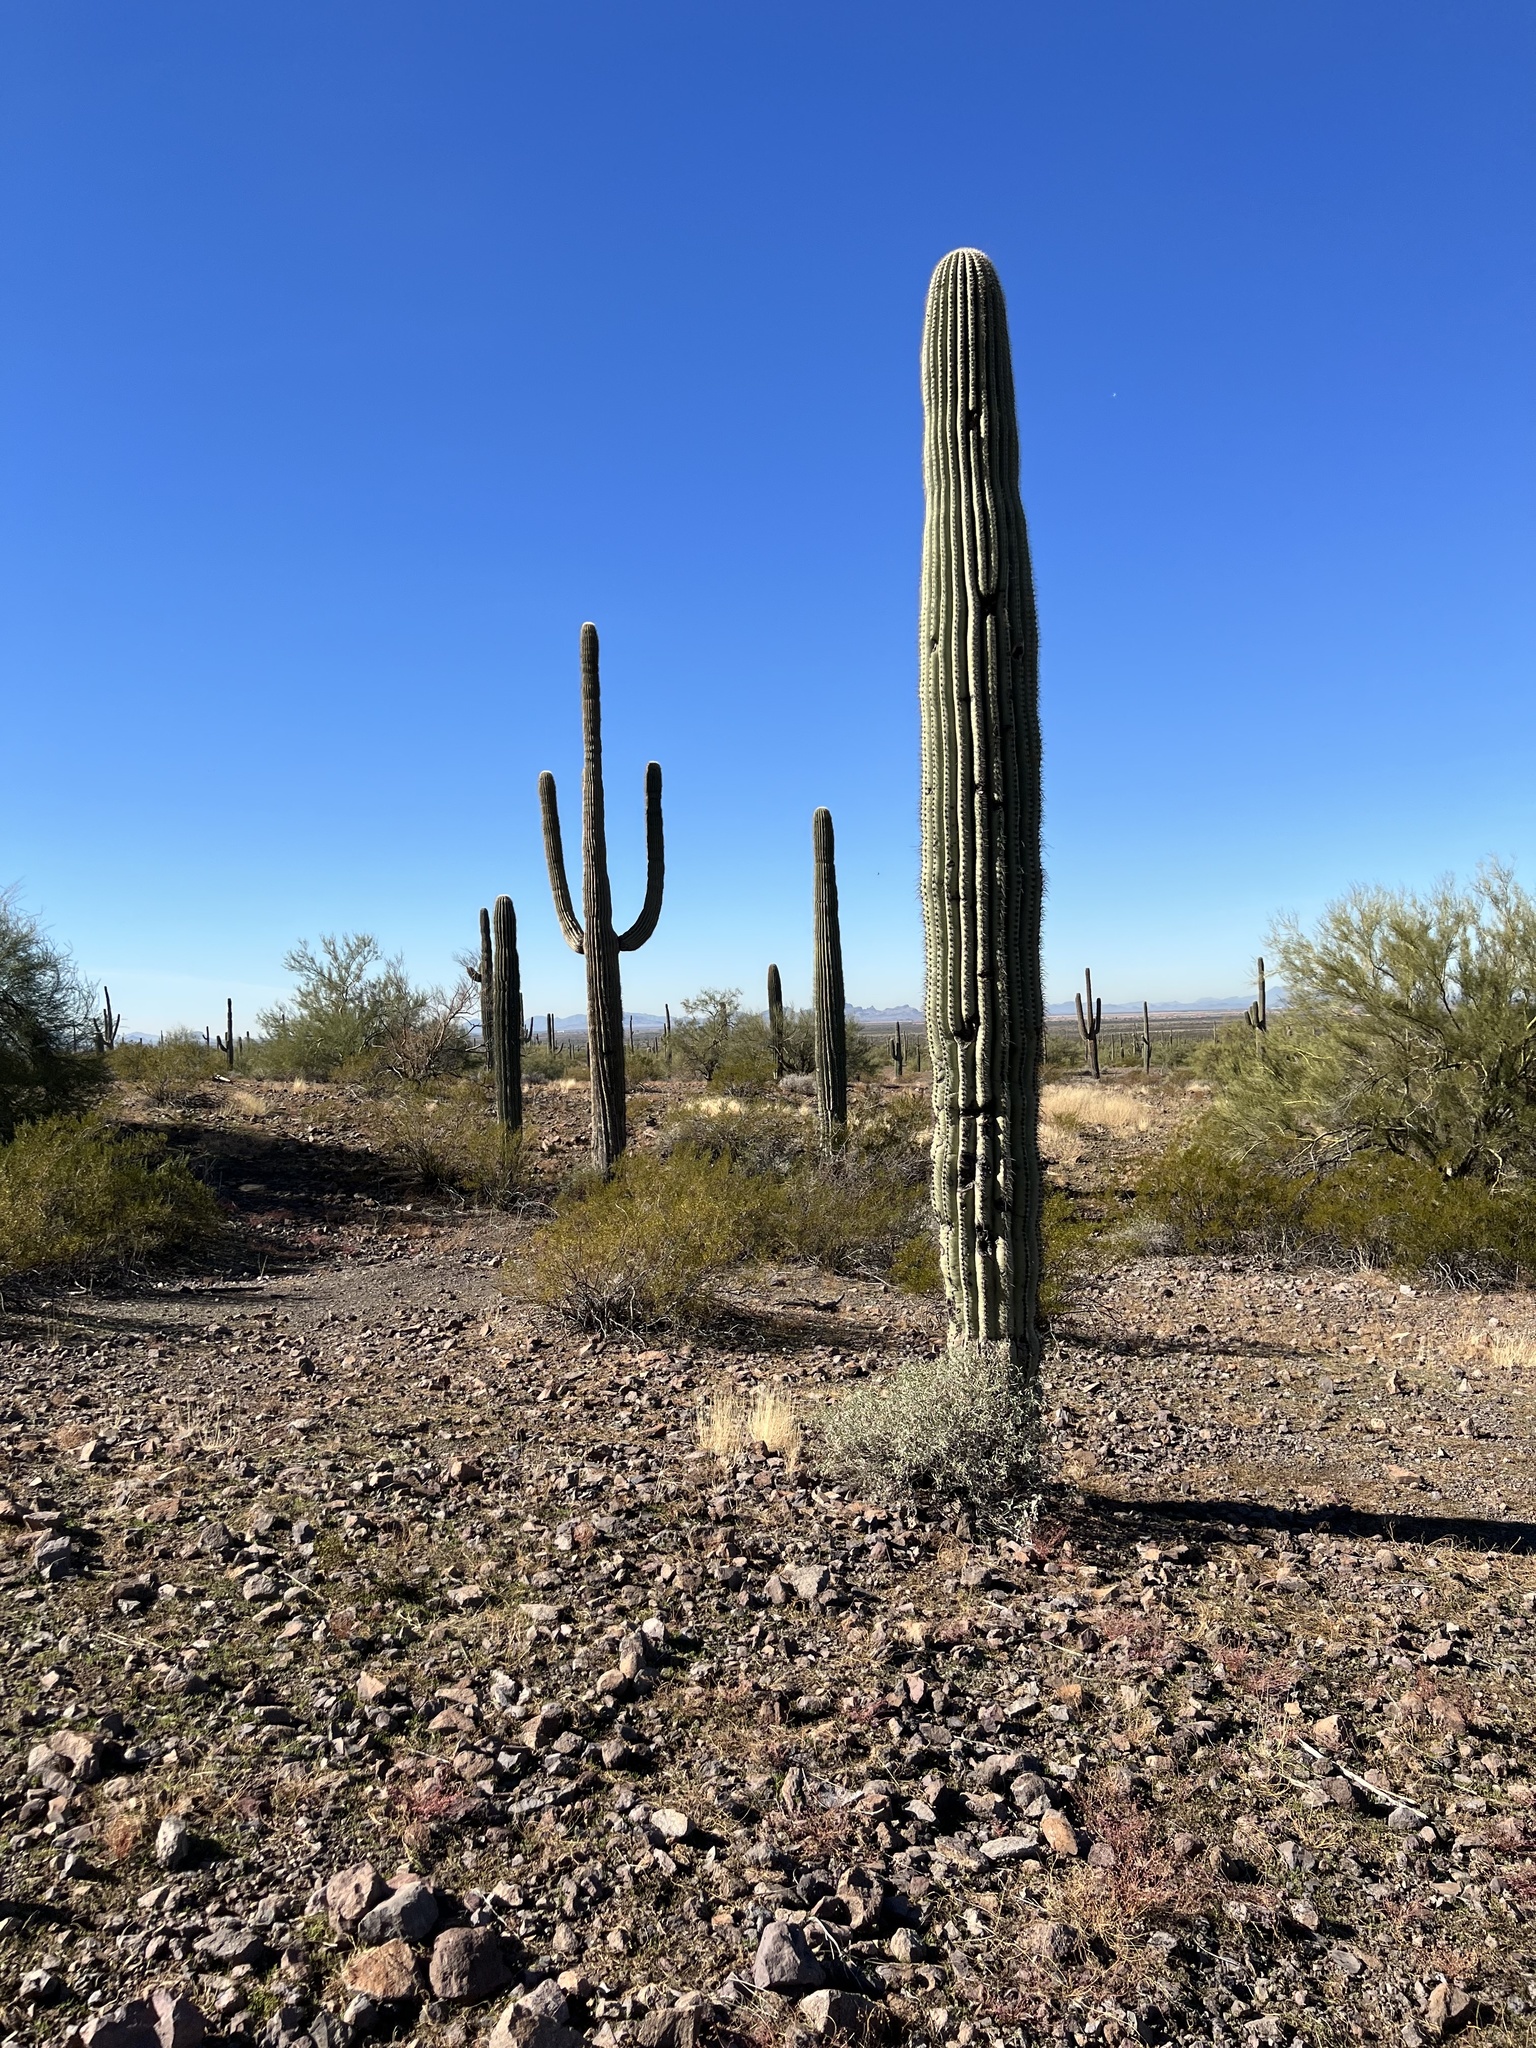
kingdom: Plantae
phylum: Tracheophyta
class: Magnoliopsida
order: Caryophyllales
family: Cactaceae
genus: Carnegiea
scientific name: Carnegiea gigantea
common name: Saguaro
